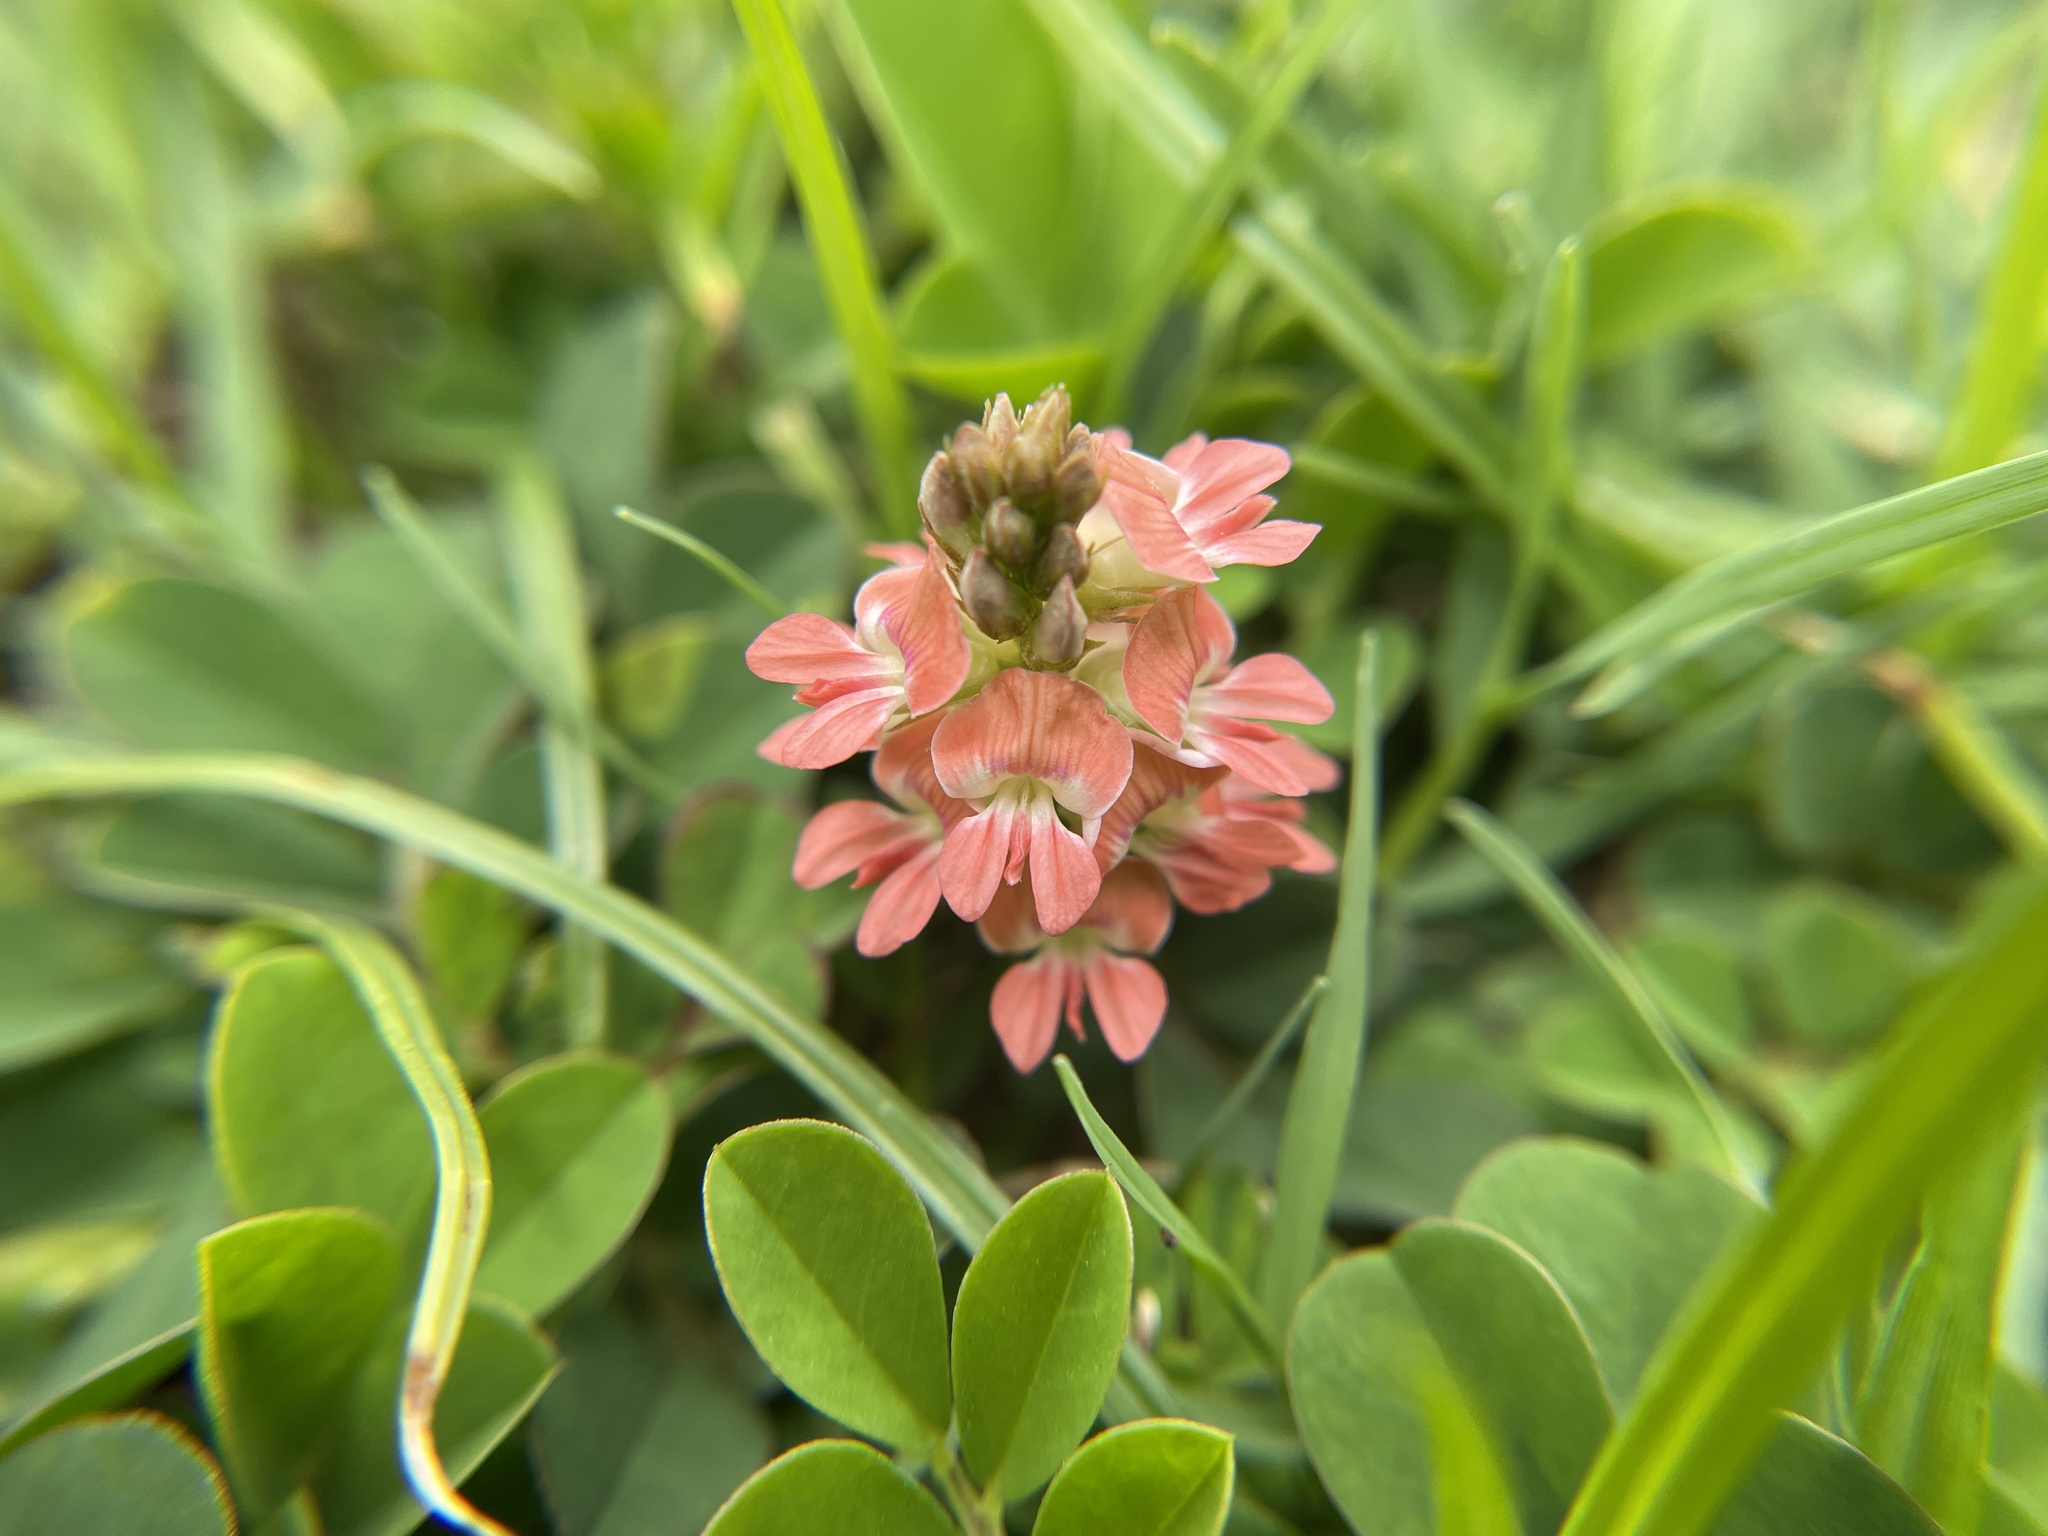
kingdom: Plantae
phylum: Tracheophyta
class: Magnoliopsida
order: Fabales
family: Fabaceae
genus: Indigofera
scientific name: Indigofera spicata
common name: Creeping indigo
